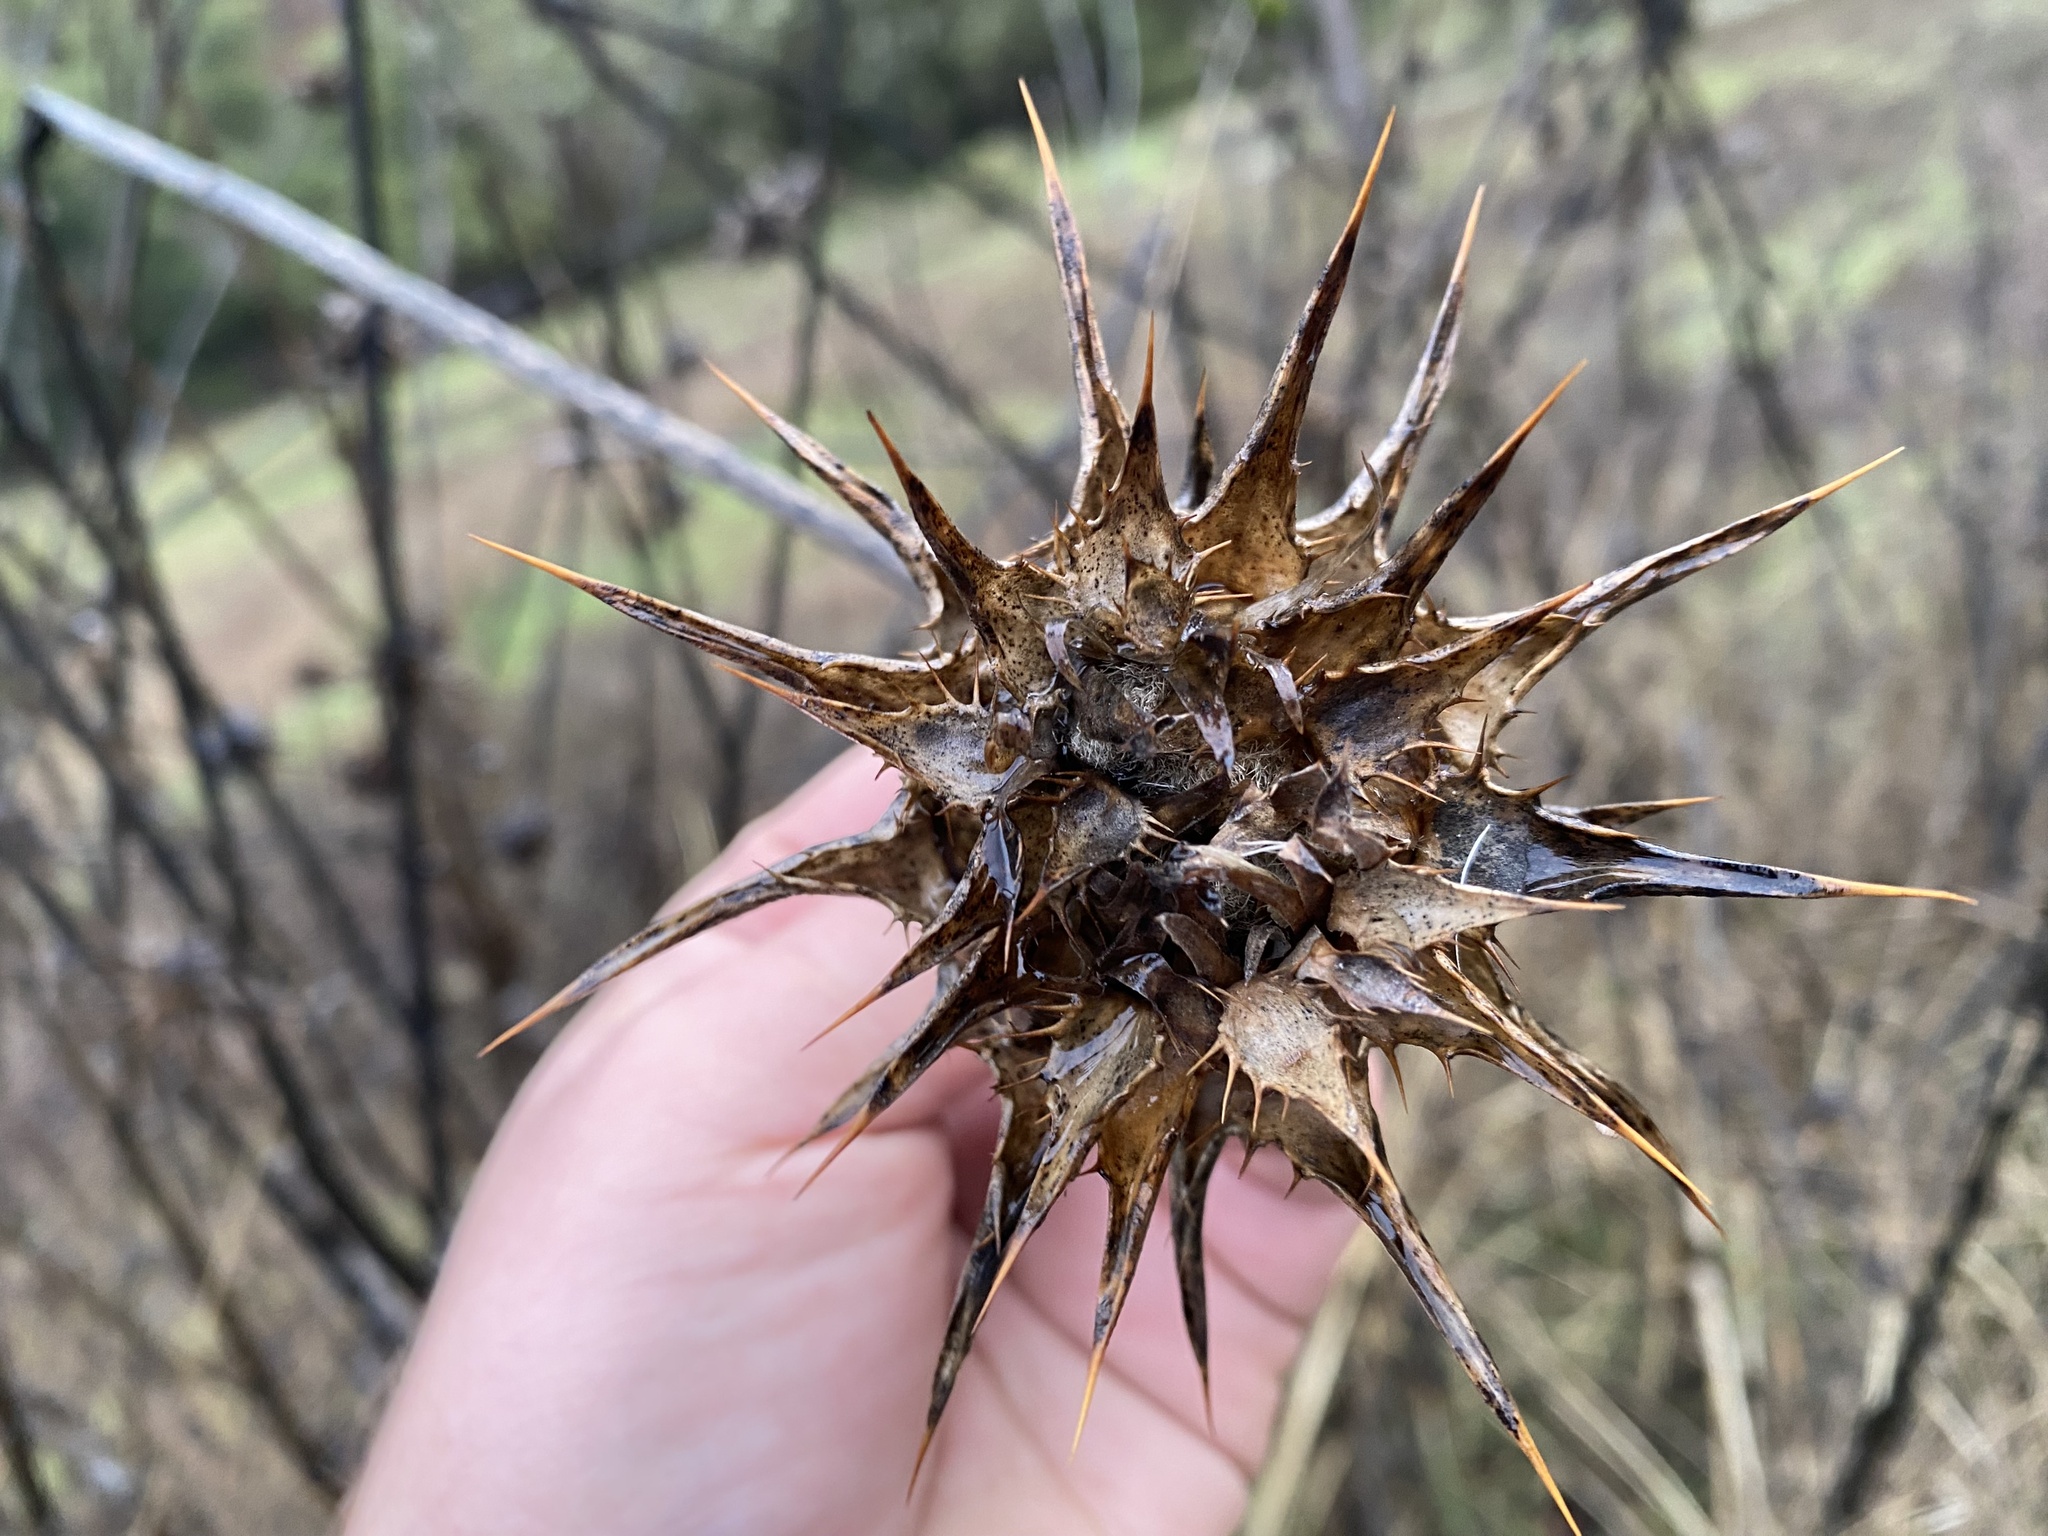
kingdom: Plantae
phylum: Tracheophyta
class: Magnoliopsida
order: Asterales
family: Asteraceae
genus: Silybum
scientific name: Silybum marianum
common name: Milk thistle
